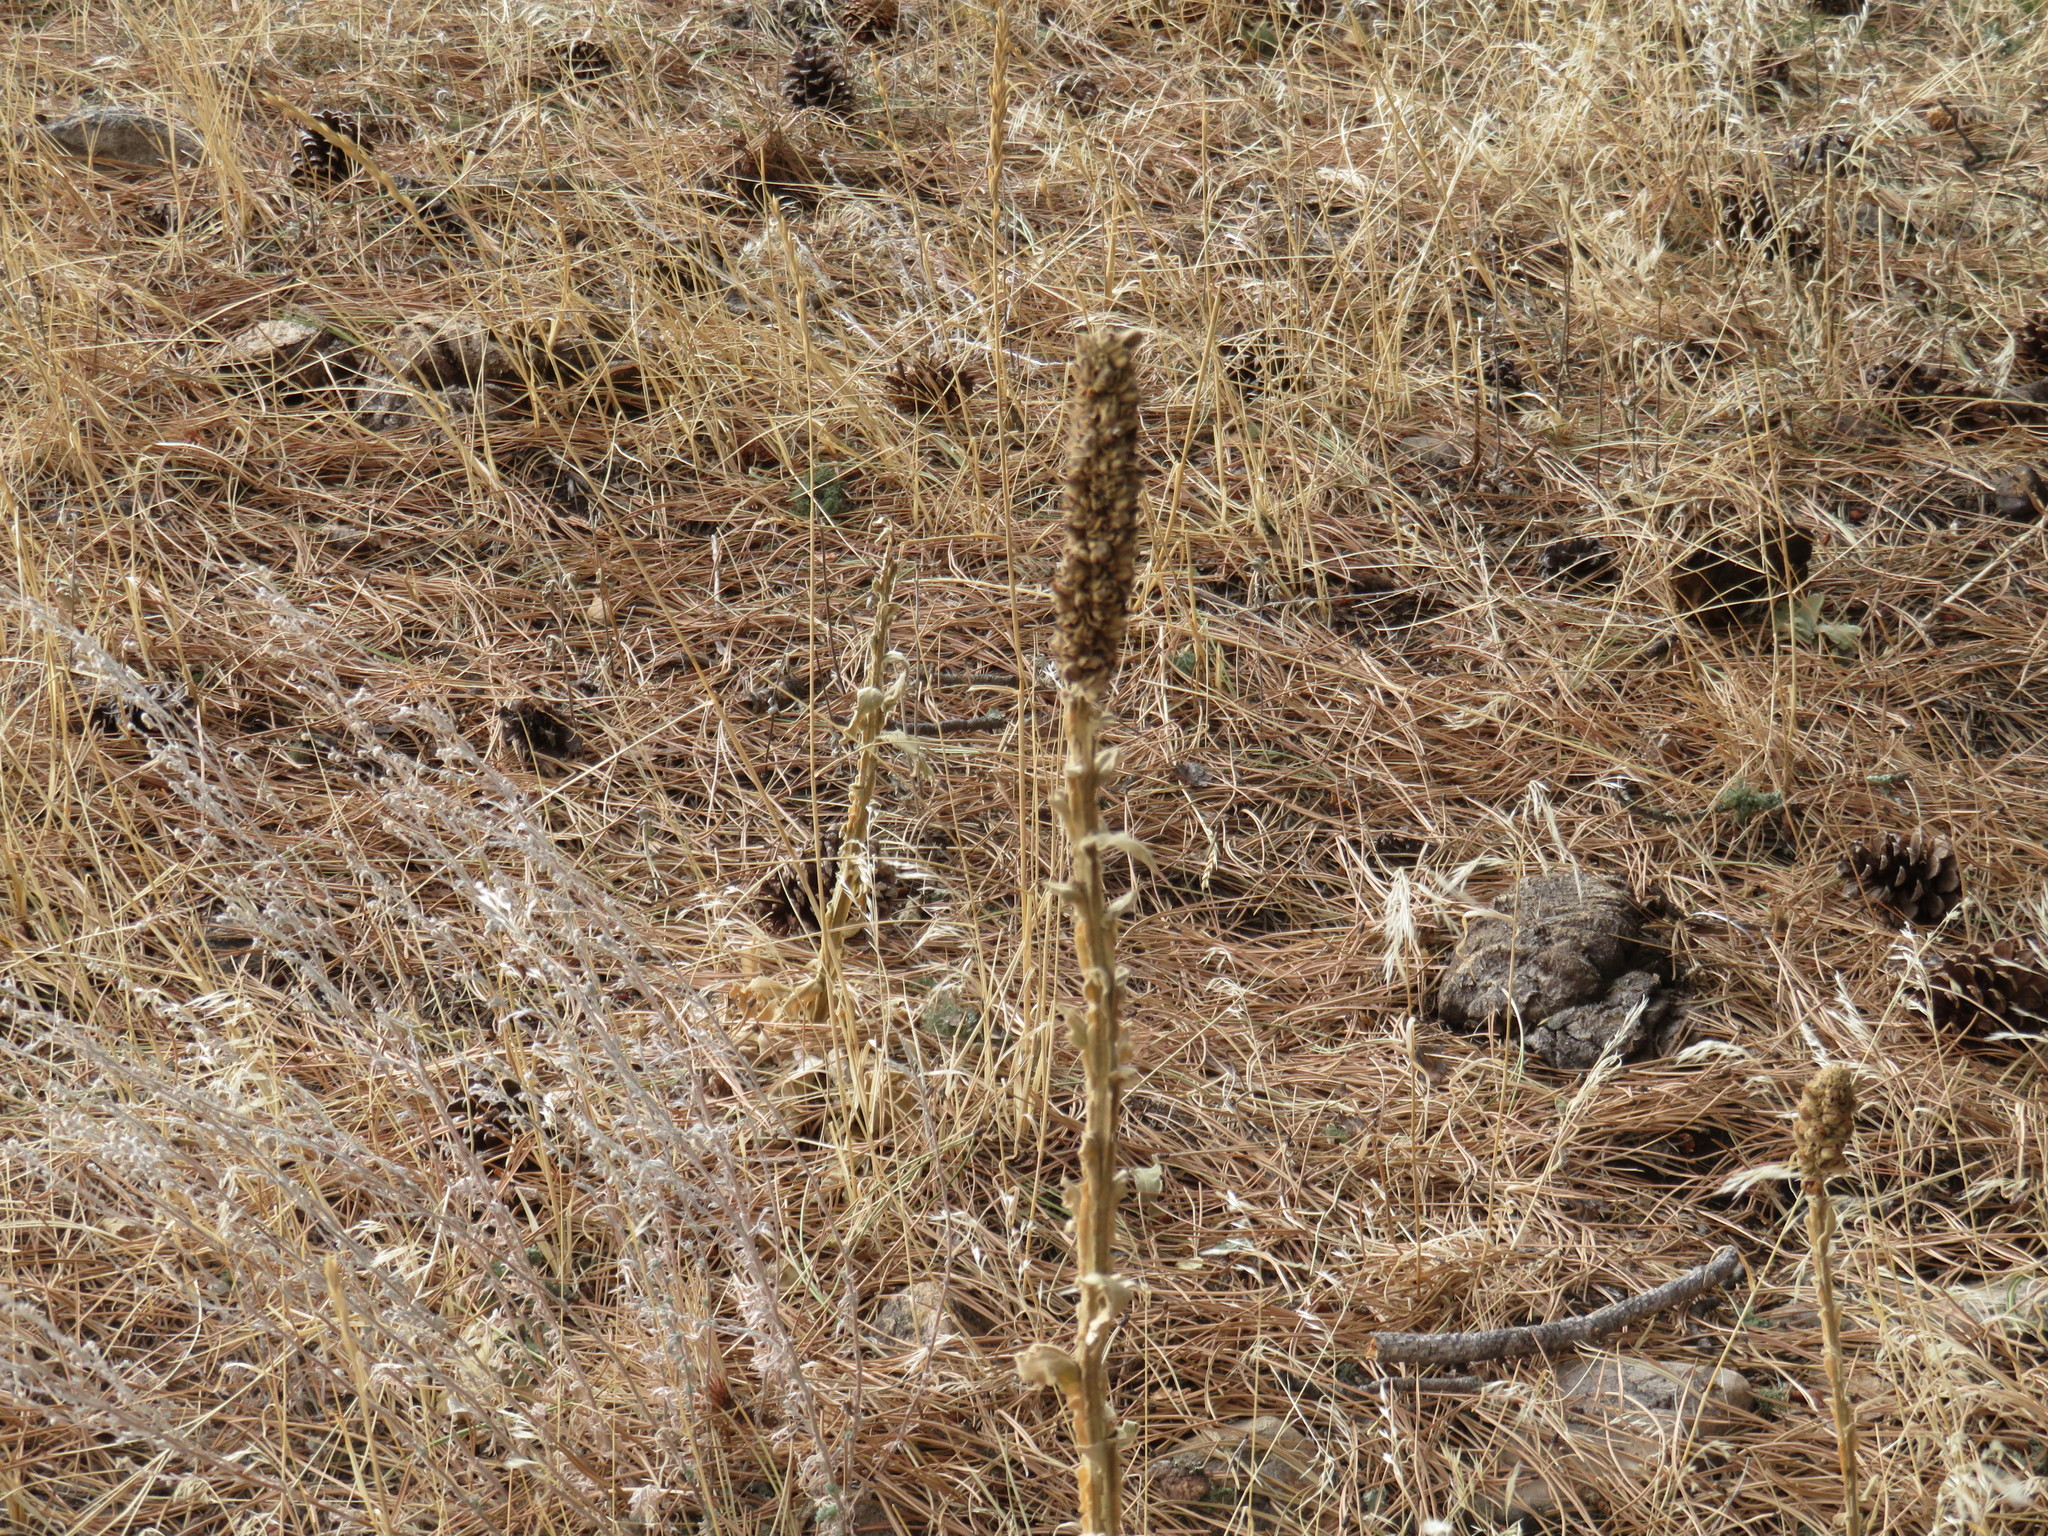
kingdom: Plantae
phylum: Tracheophyta
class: Magnoliopsida
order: Lamiales
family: Scrophulariaceae
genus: Verbascum
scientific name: Verbascum thapsus
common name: Common mullein
